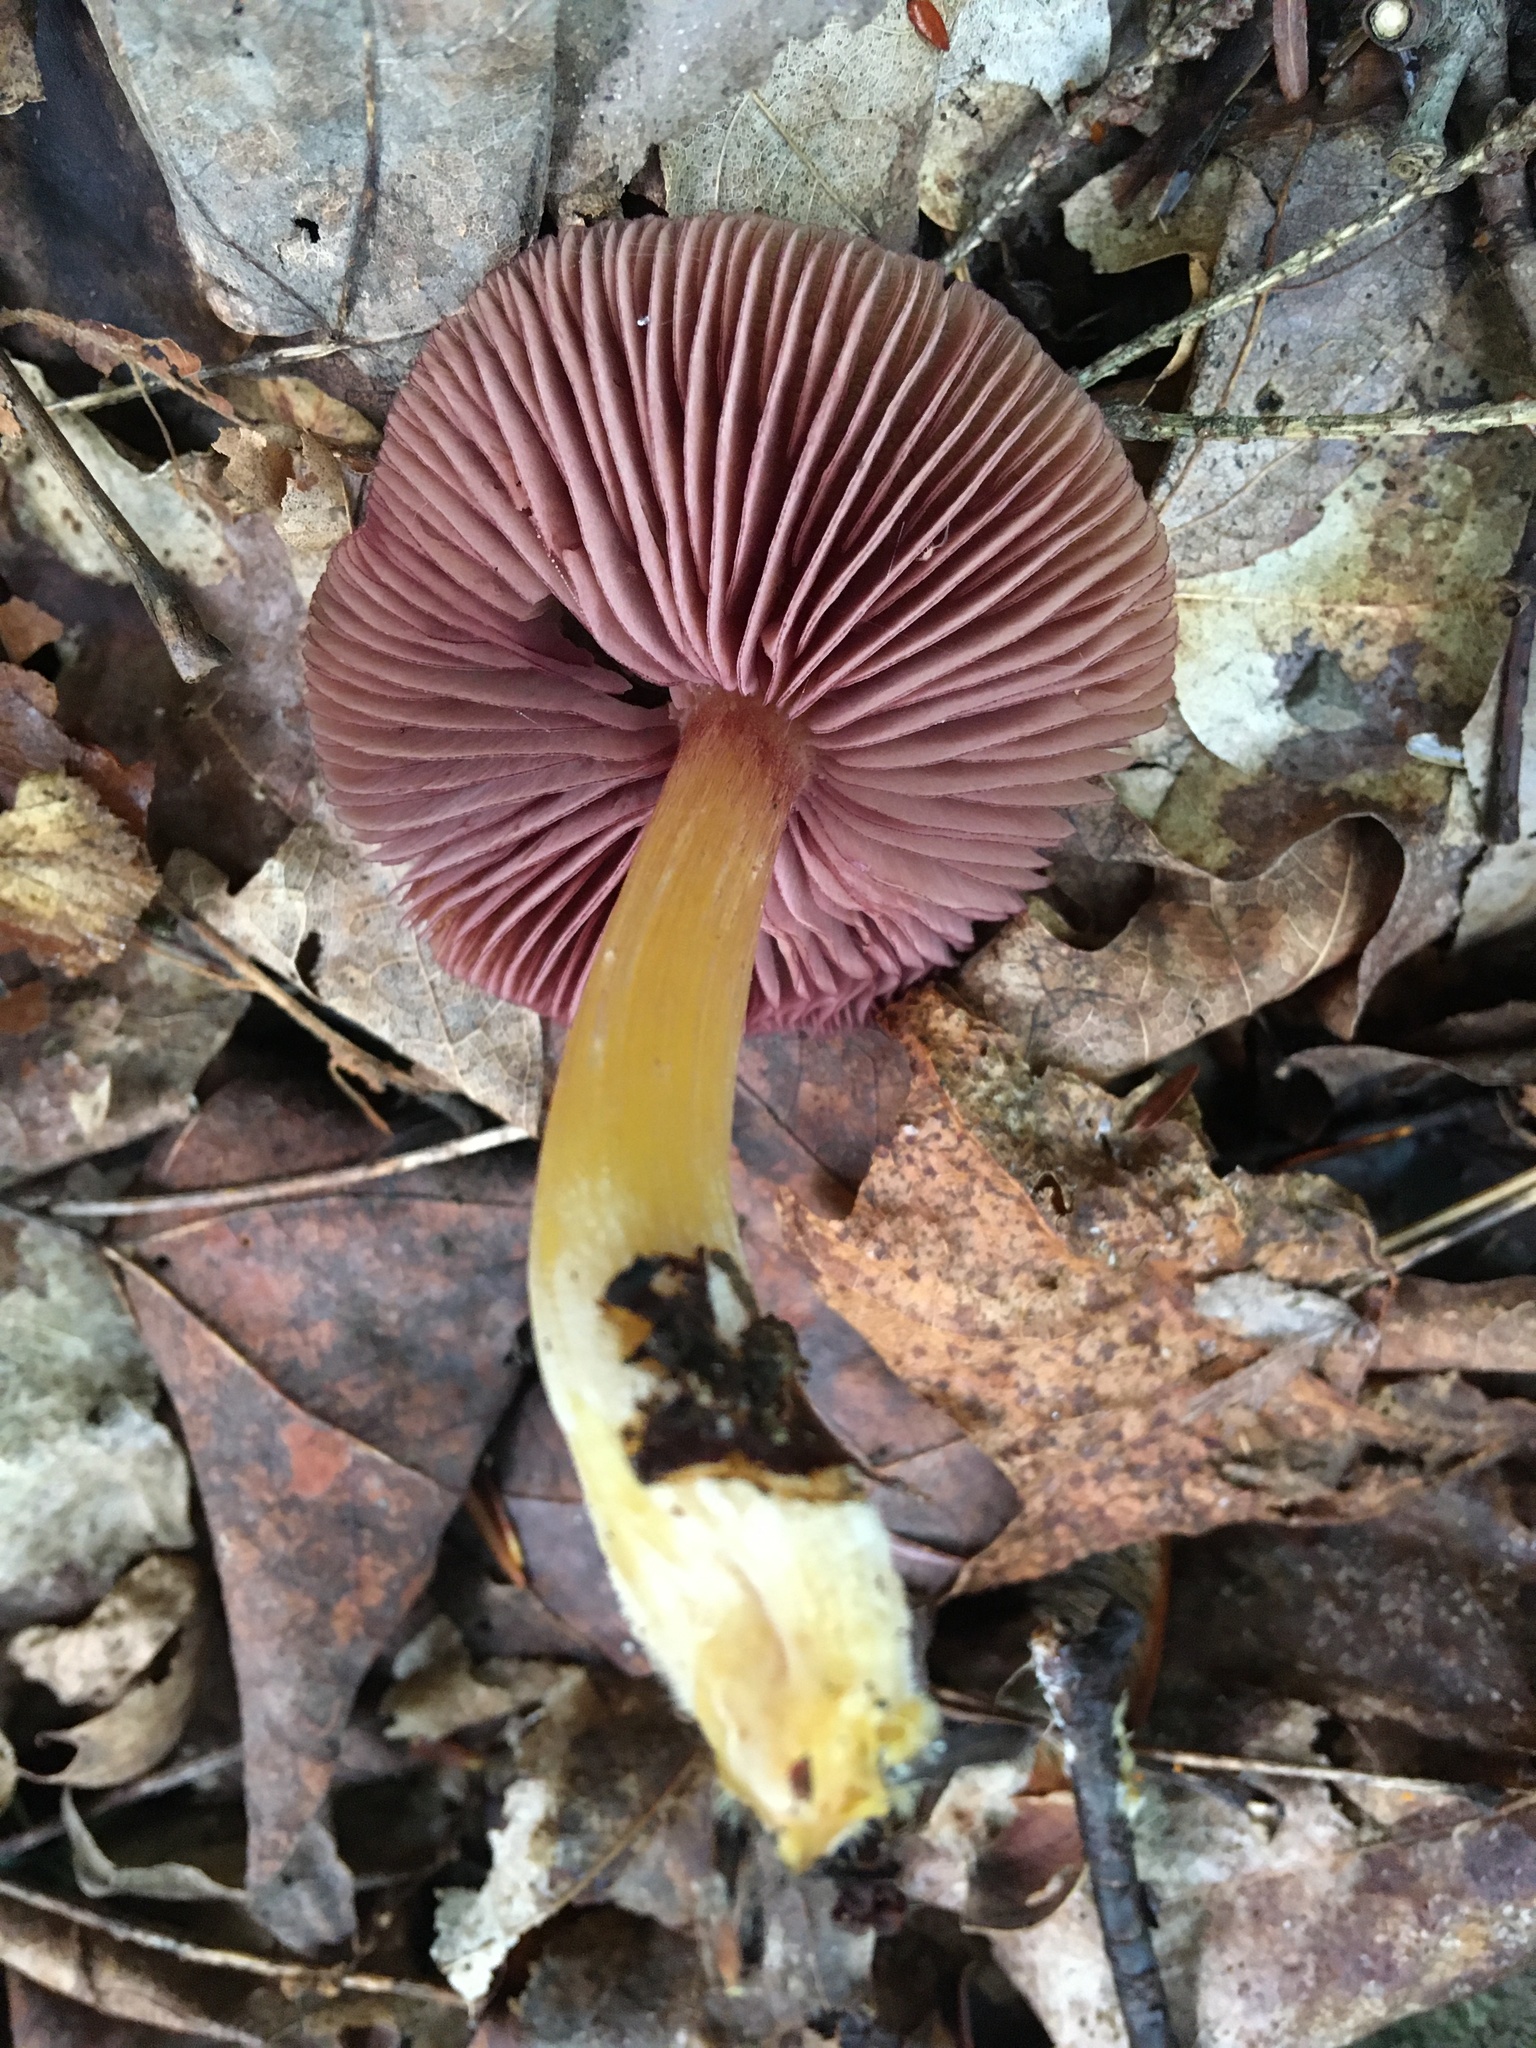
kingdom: Fungi
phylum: Basidiomycota
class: Agaricomycetes
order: Agaricales
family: Mycenaceae
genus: Mycena
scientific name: Mycena denticulata
